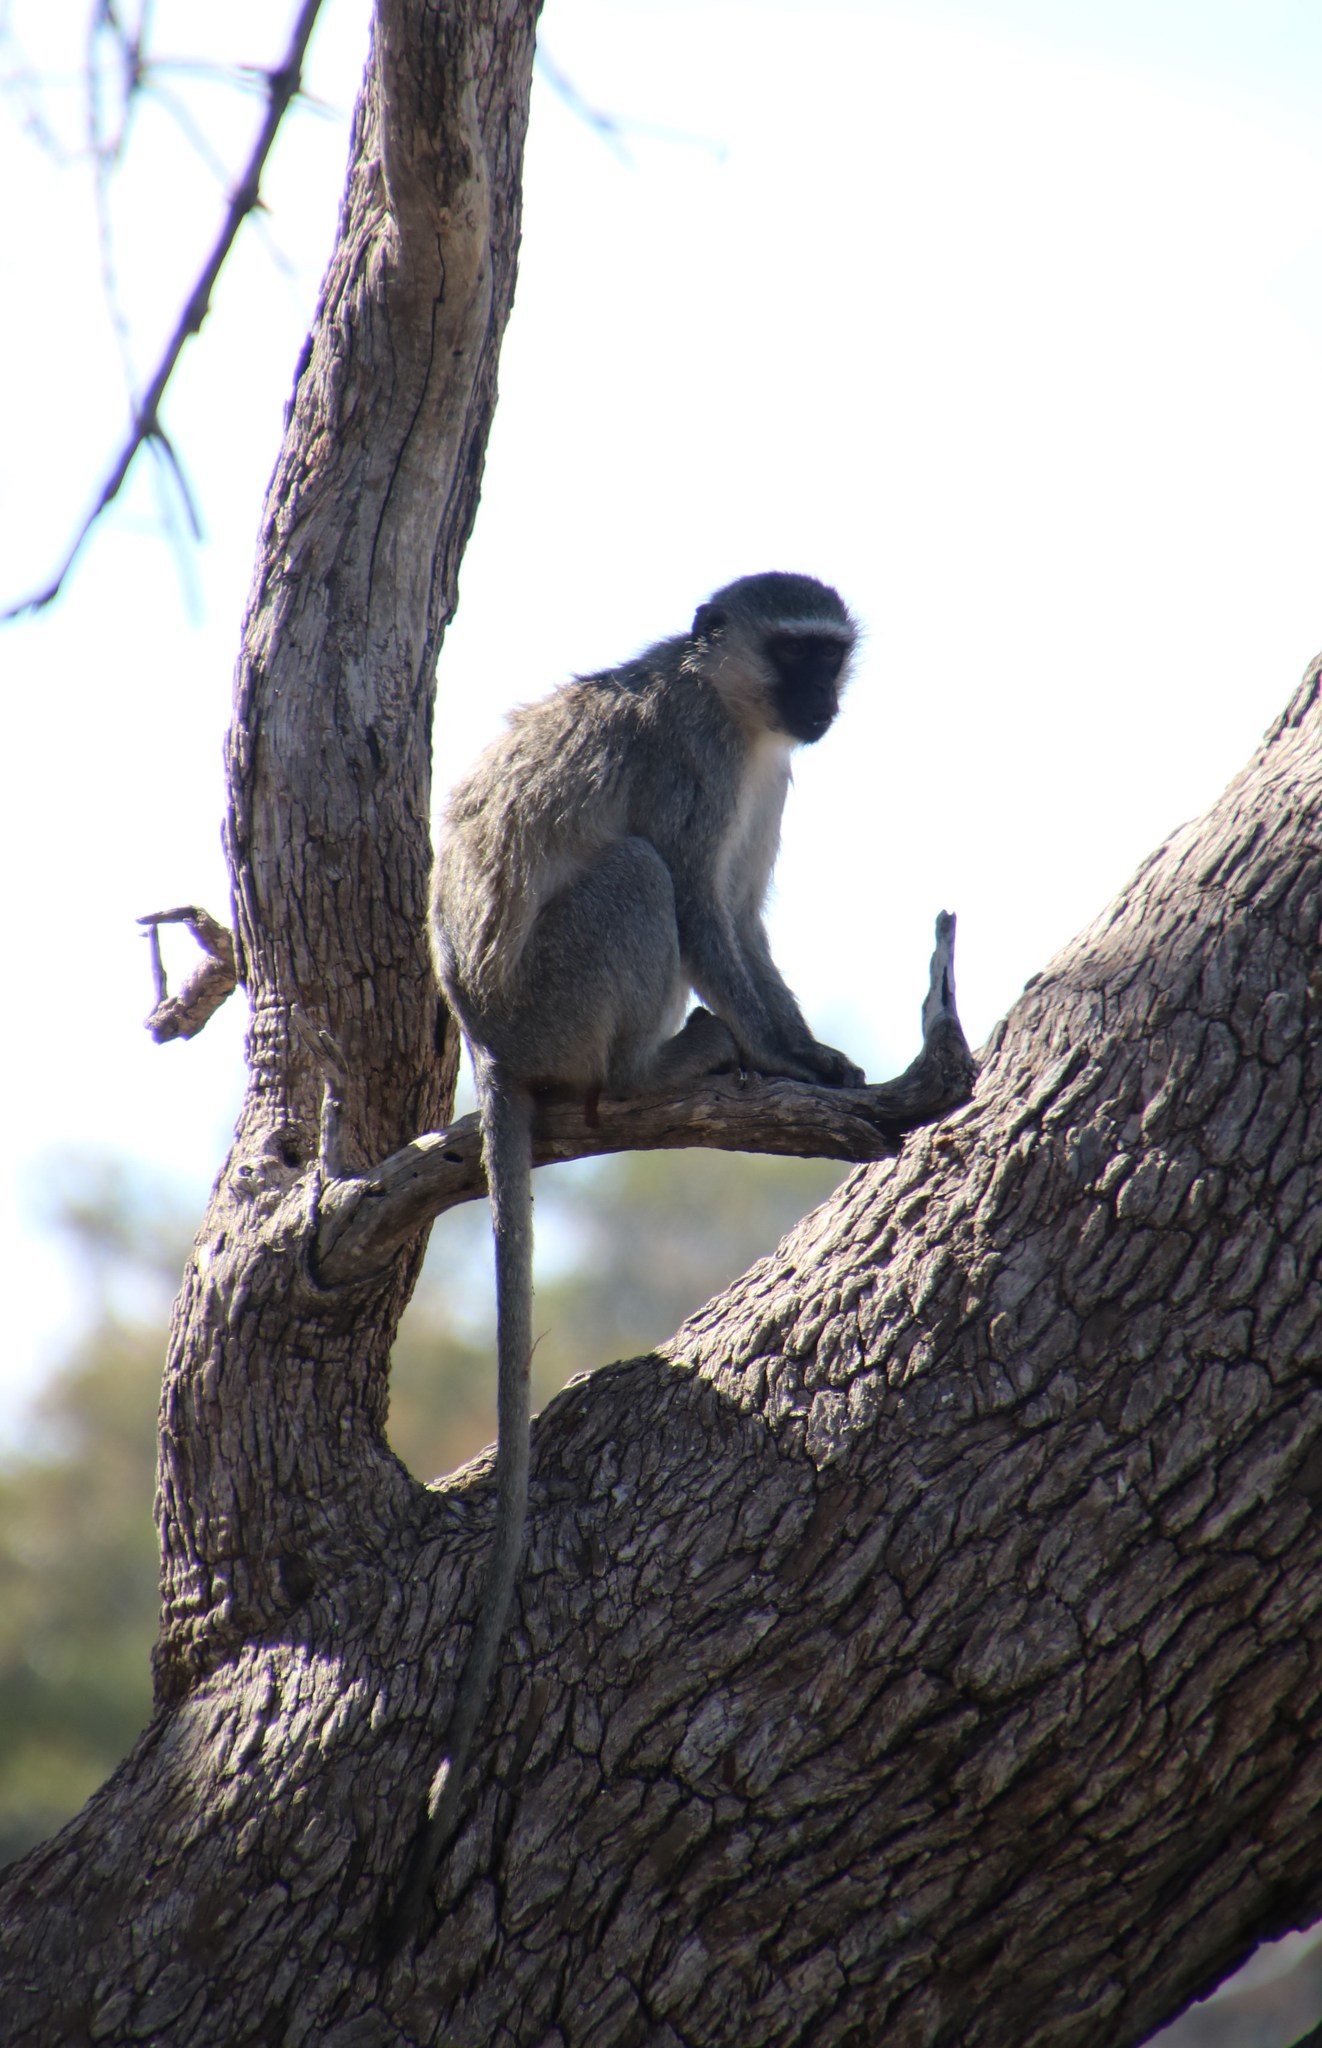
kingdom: Animalia
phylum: Chordata
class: Mammalia
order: Primates
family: Cercopithecidae
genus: Chlorocebus
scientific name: Chlorocebus pygerythrus
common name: Vervet monkey
